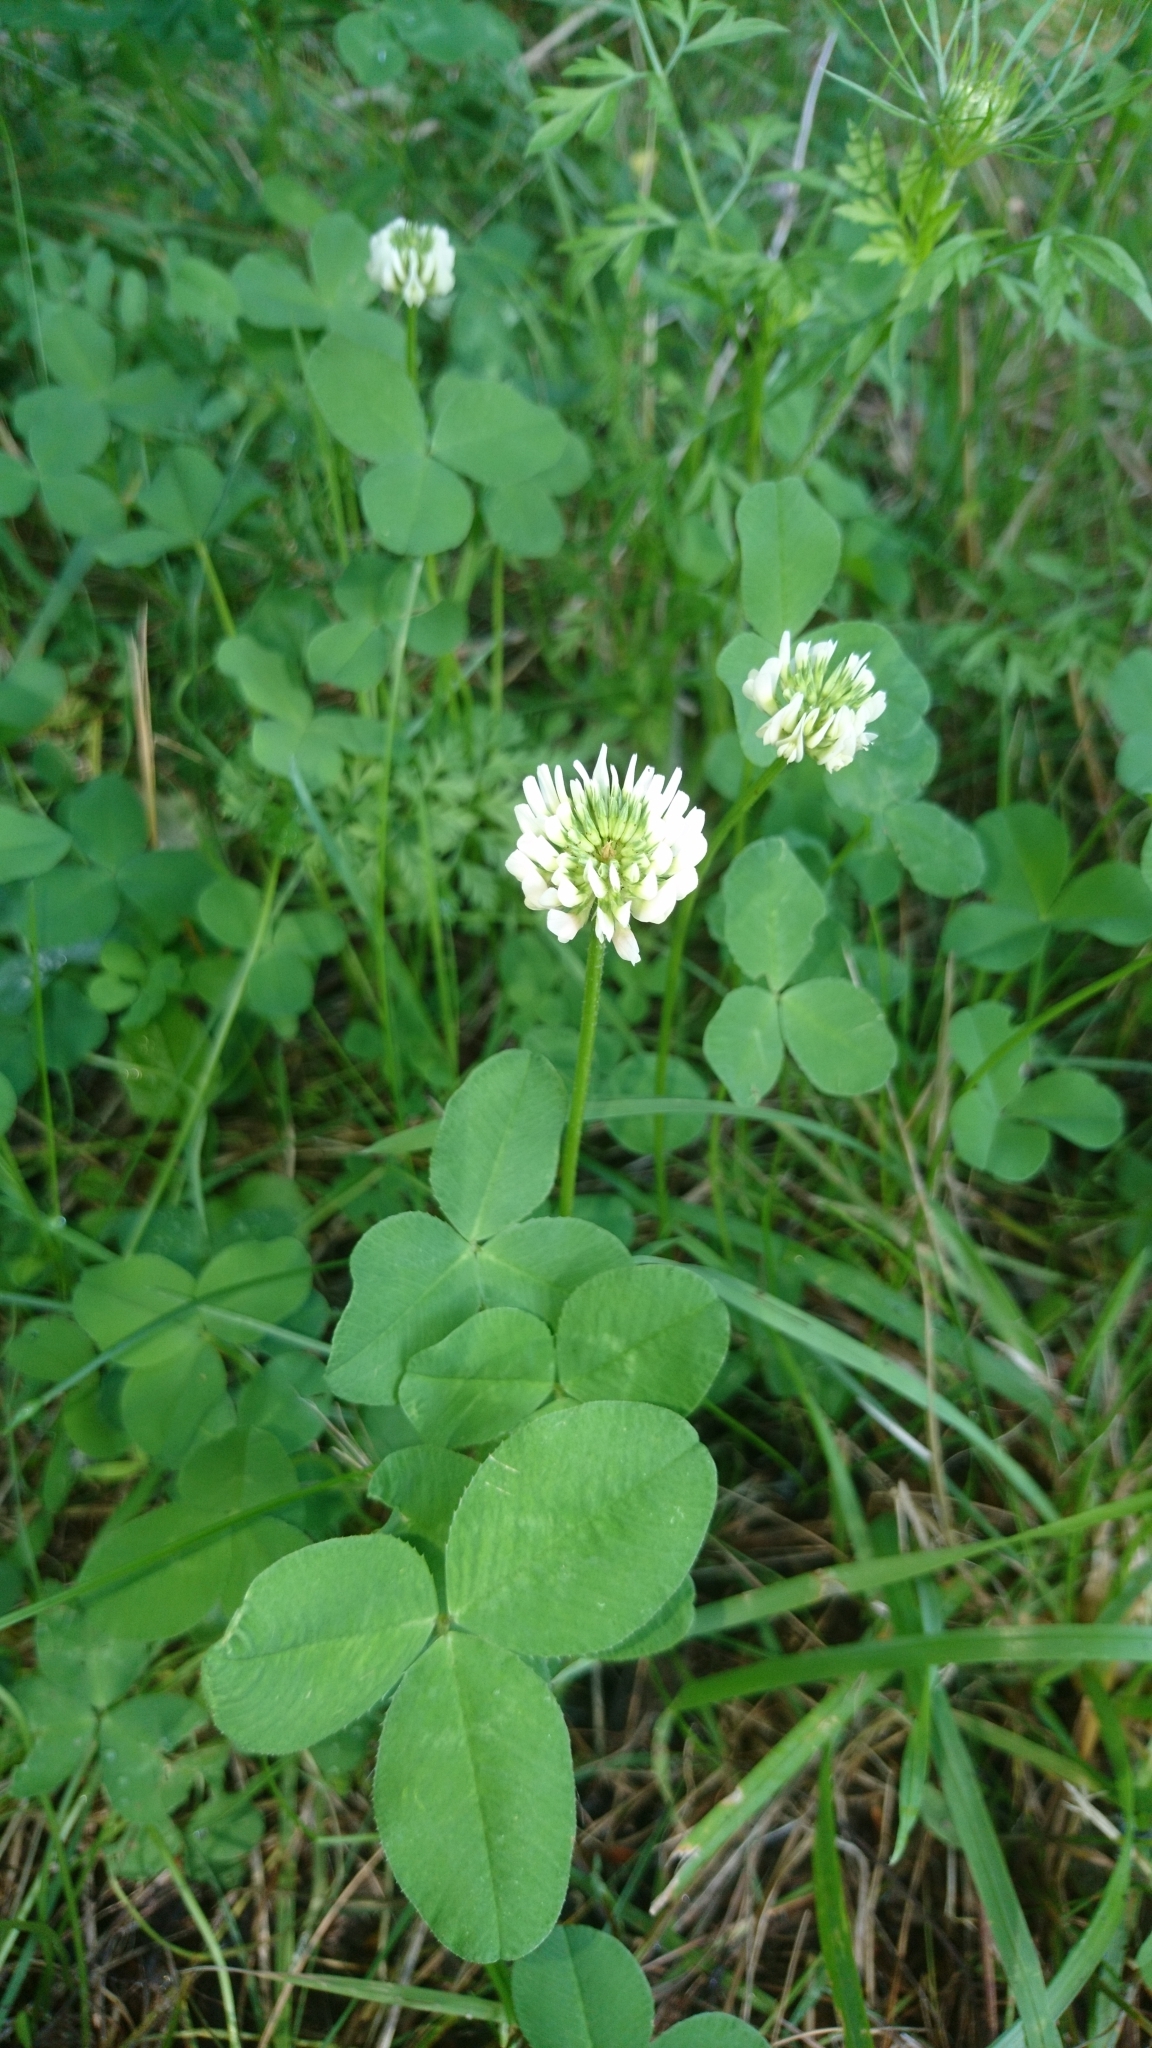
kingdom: Plantae
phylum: Tracheophyta
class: Magnoliopsida
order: Fabales
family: Fabaceae
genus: Trifolium
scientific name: Trifolium repens
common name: White clover
